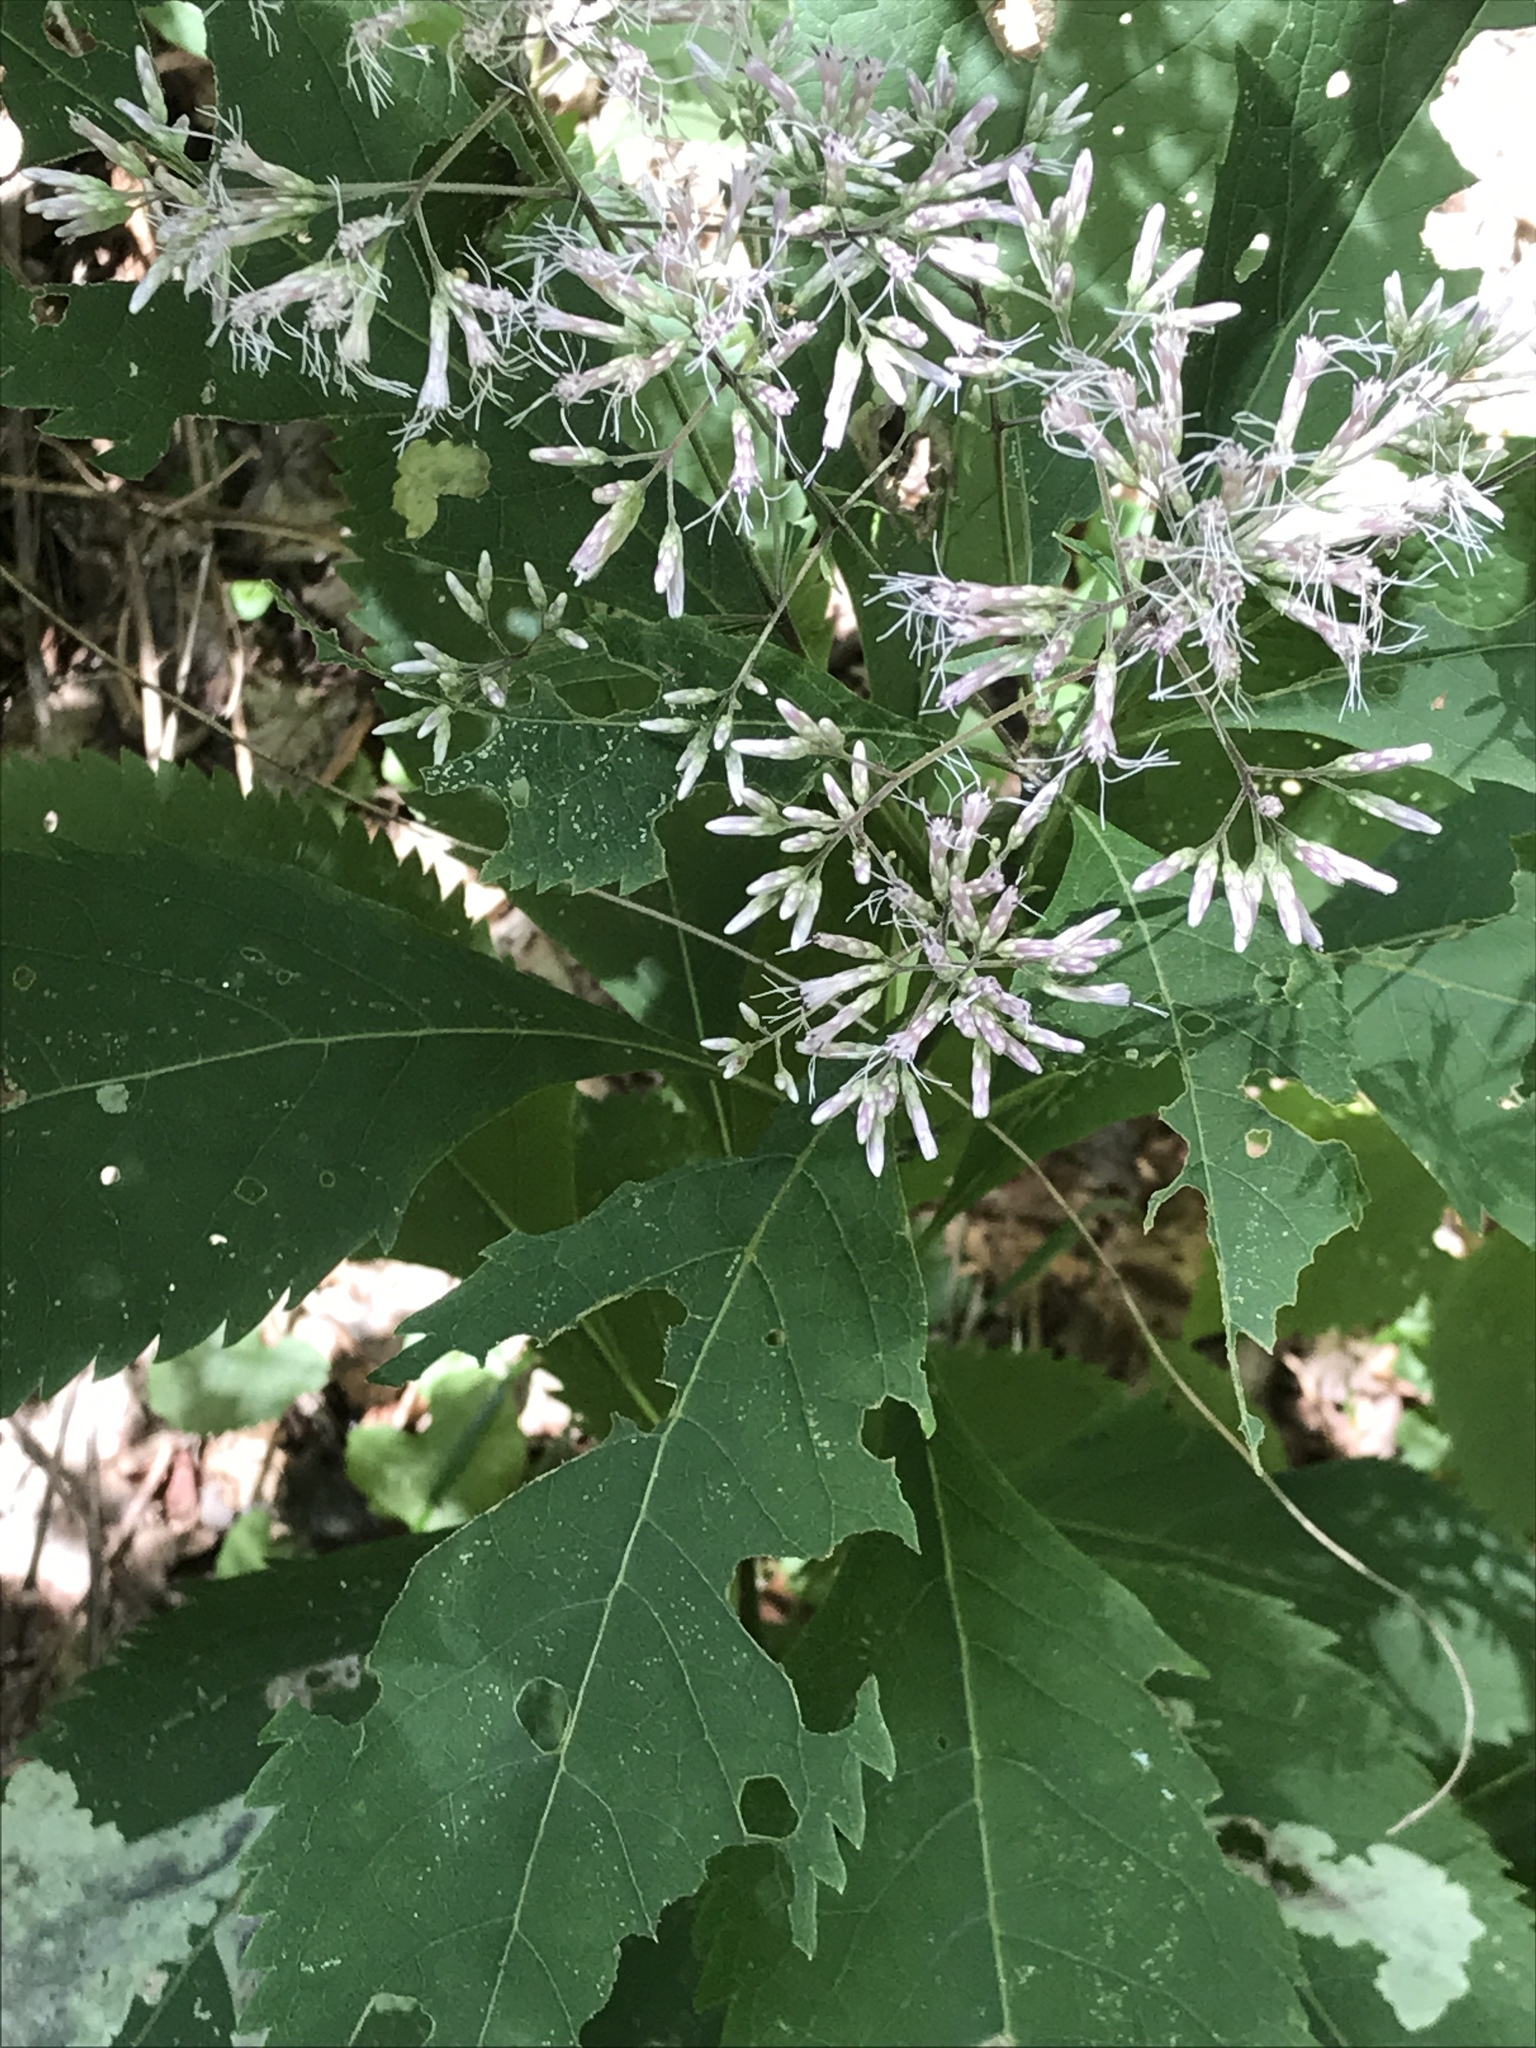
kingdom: Plantae
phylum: Tracheophyta
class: Magnoliopsida
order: Asterales
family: Asteraceae
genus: Eutrochium
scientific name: Eutrochium purpureum
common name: Gravelroot
